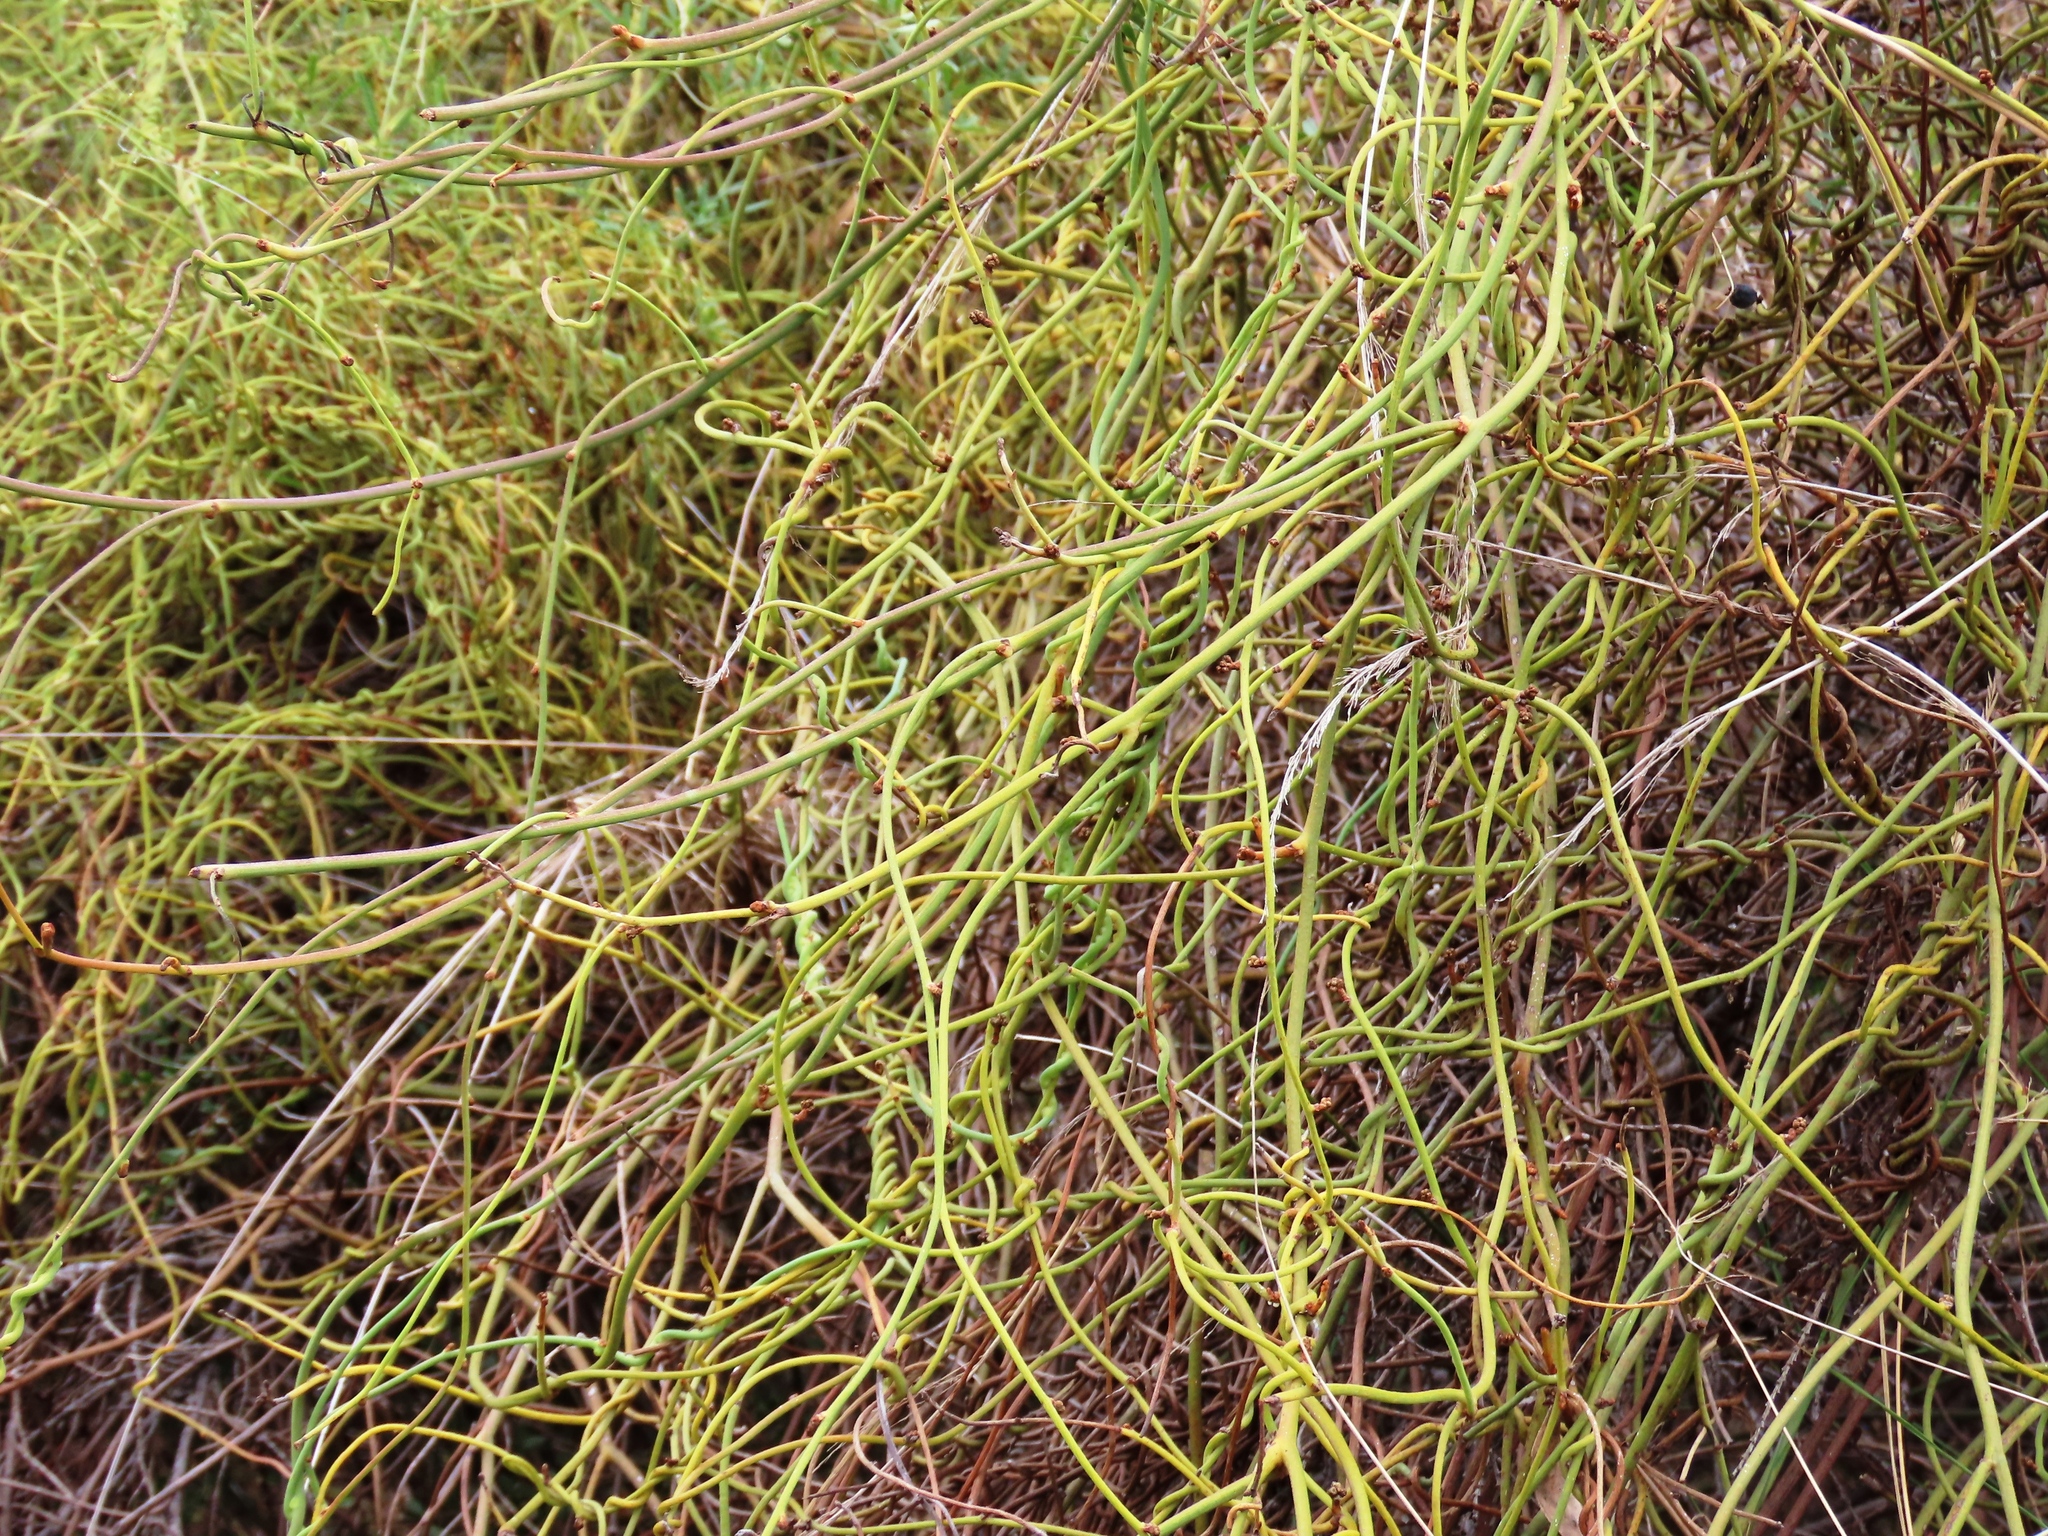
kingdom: Plantae
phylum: Tracheophyta
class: Magnoliopsida
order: Laurales
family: Lauraceae
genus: Cassytha
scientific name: Cassytha melantha
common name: Mallee stranglevine
